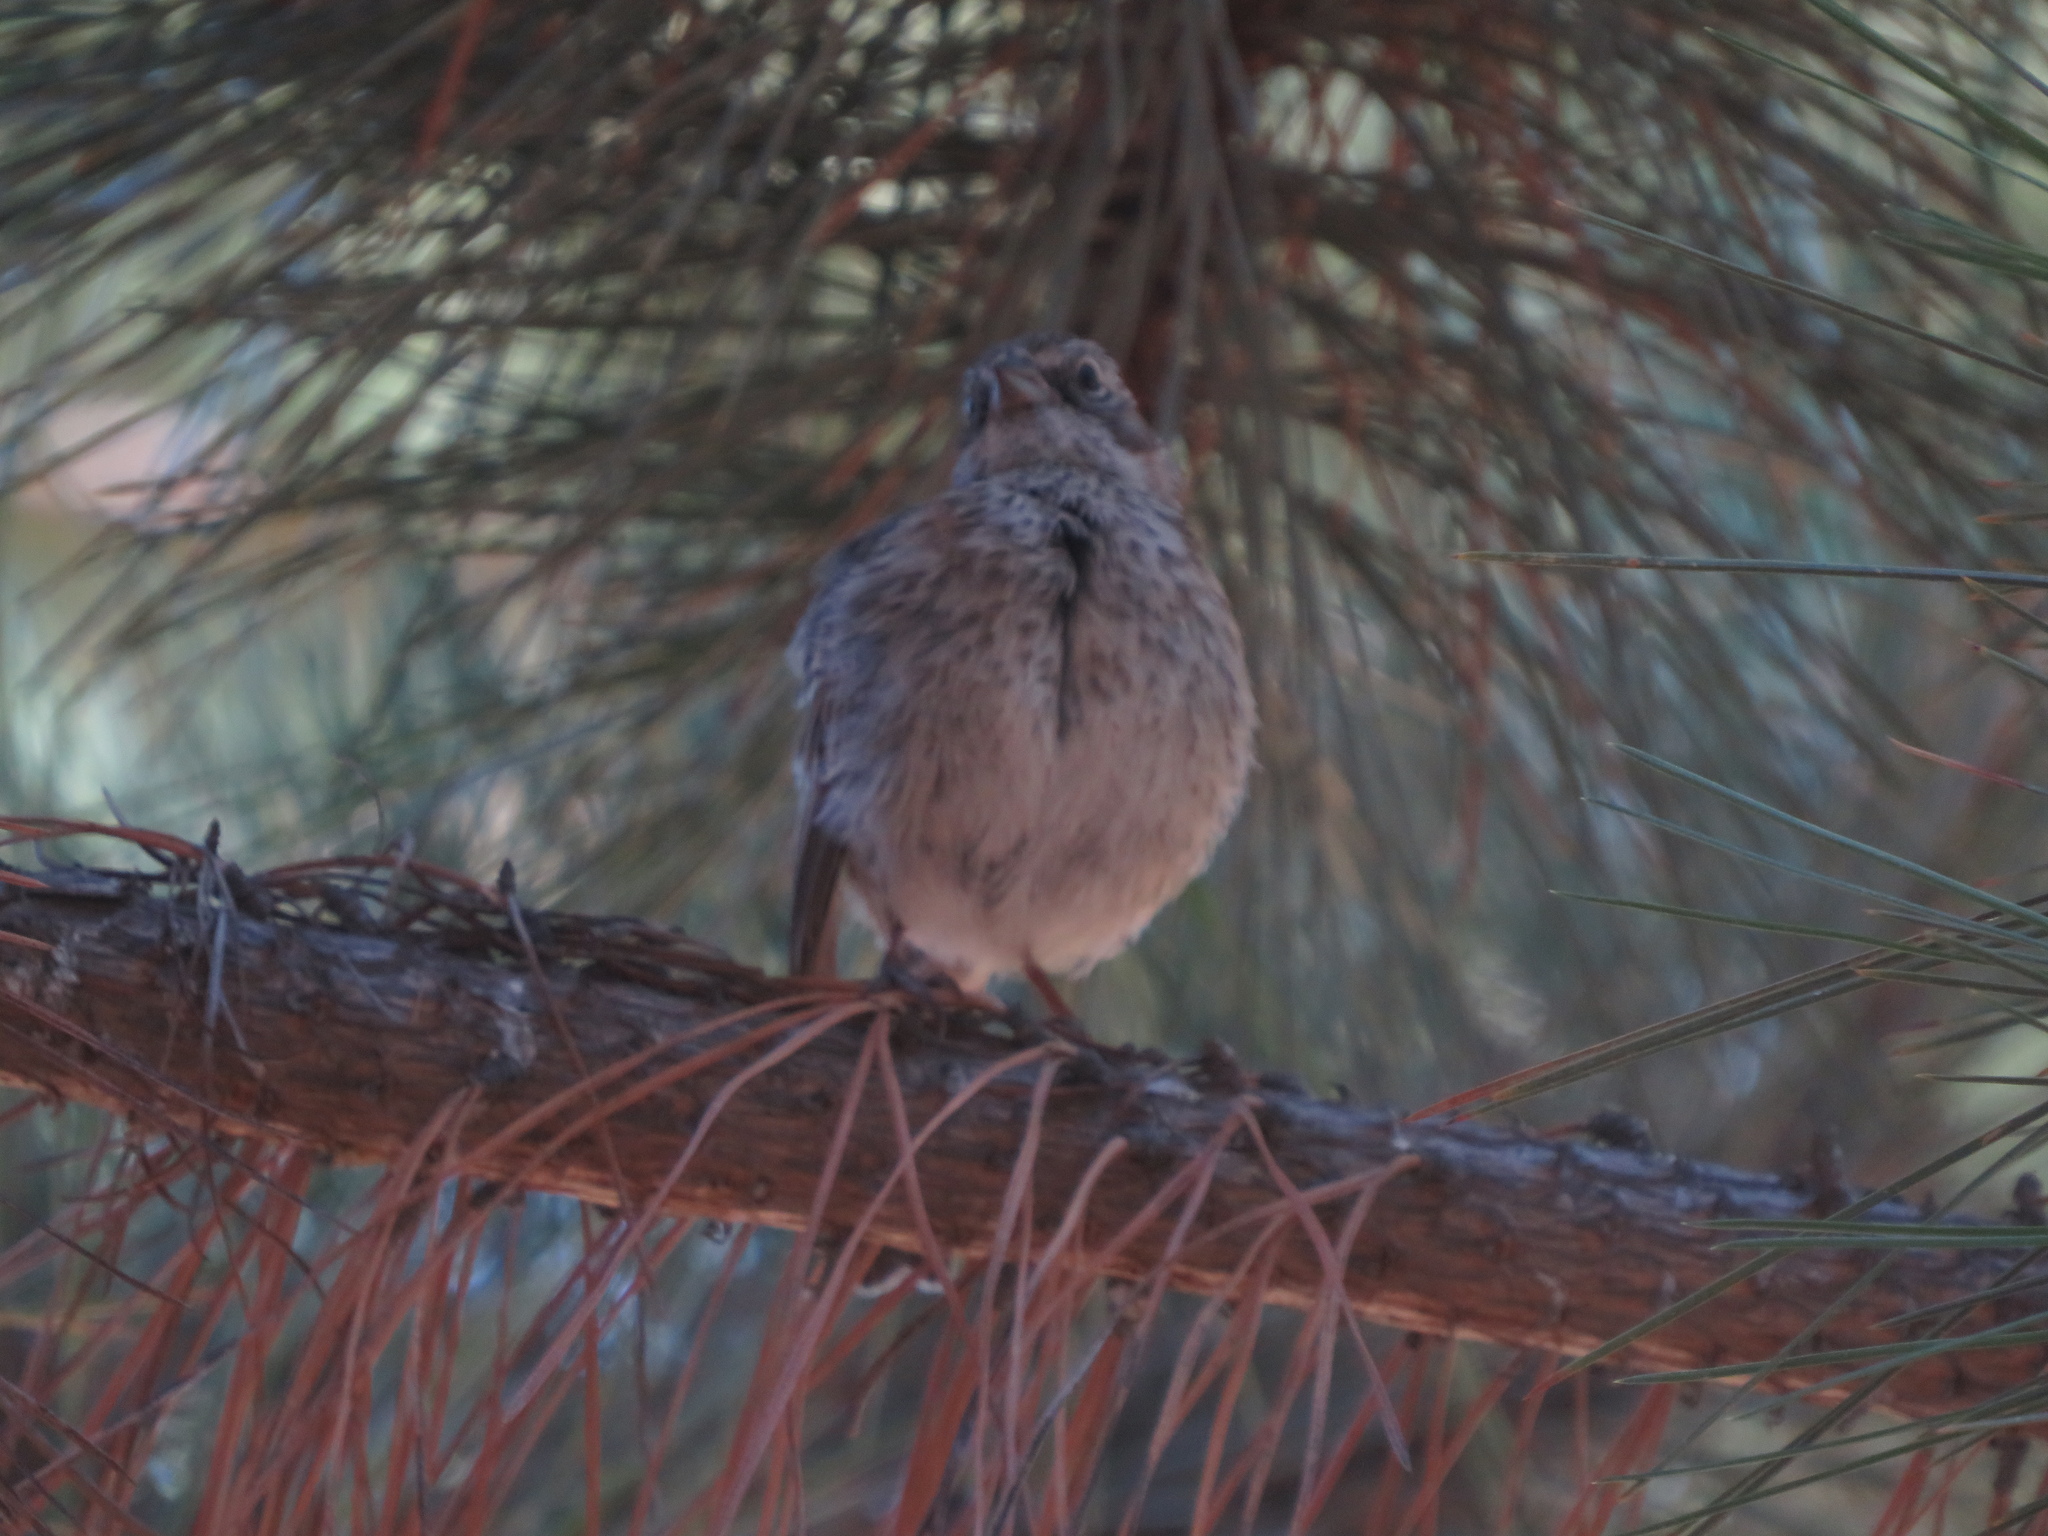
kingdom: Animalia
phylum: Chordata
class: Aves
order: Passeriformes
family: Passerellidae
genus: Zonotrichia
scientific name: Zonotrichia capensis
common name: Rufous-collared sparrow
